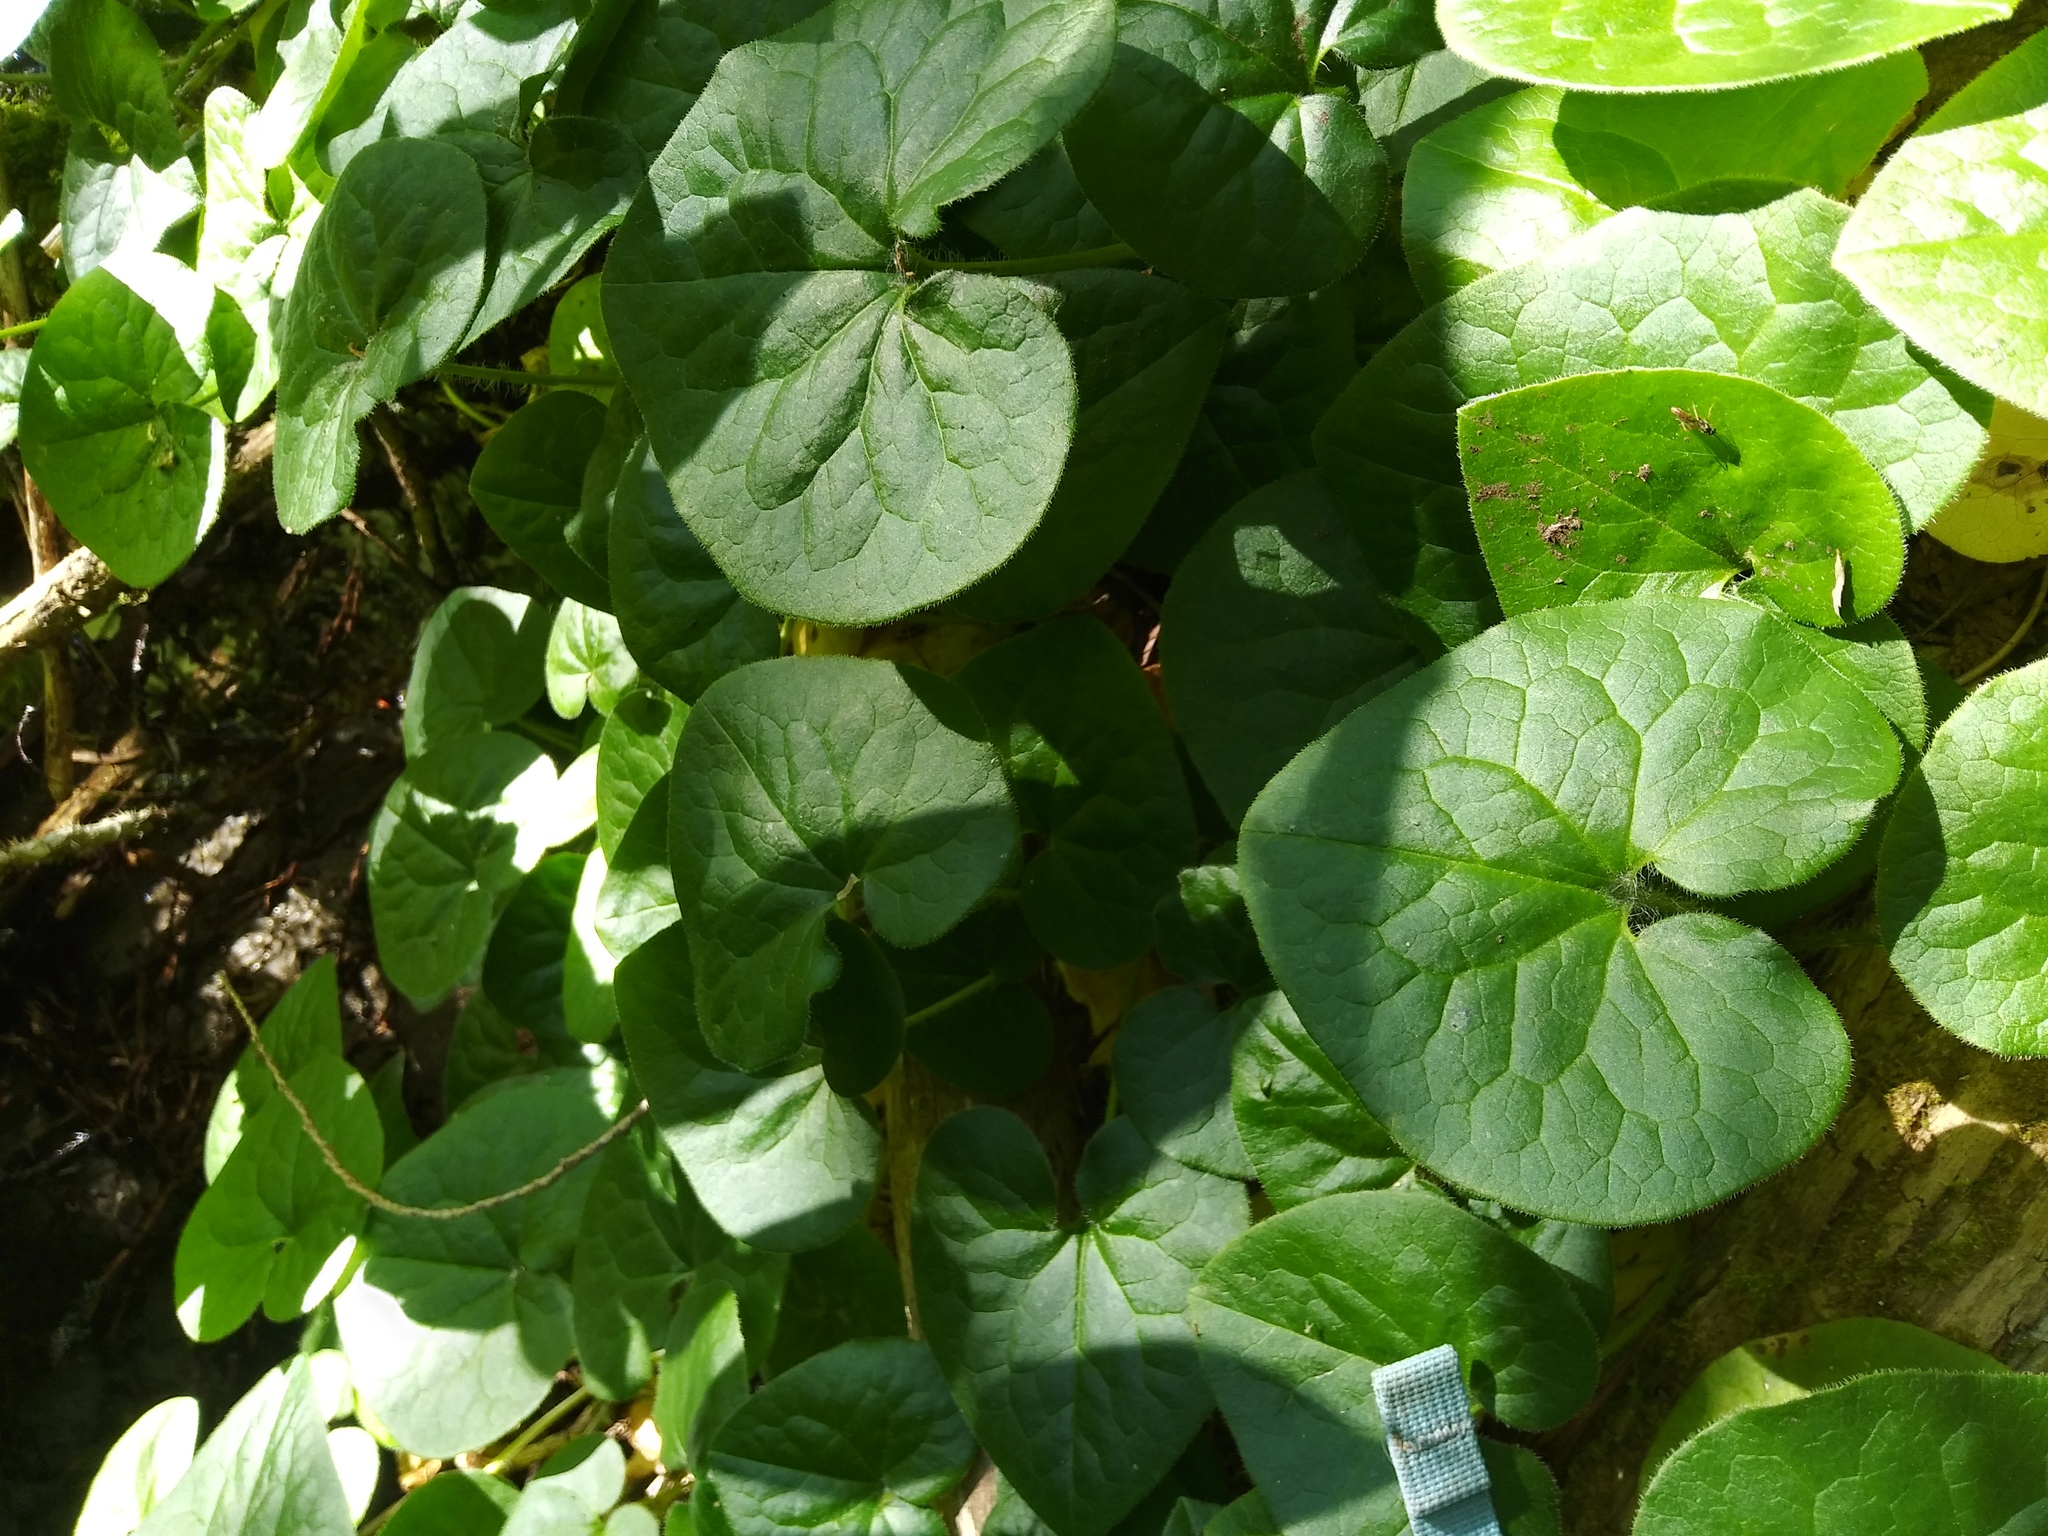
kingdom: Plantae
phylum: Tracheophyta
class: Magnoliopsida
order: Piperales
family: Aristolochiaceae
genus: Asarum
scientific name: Asarum caudatum
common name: Wild ginger
